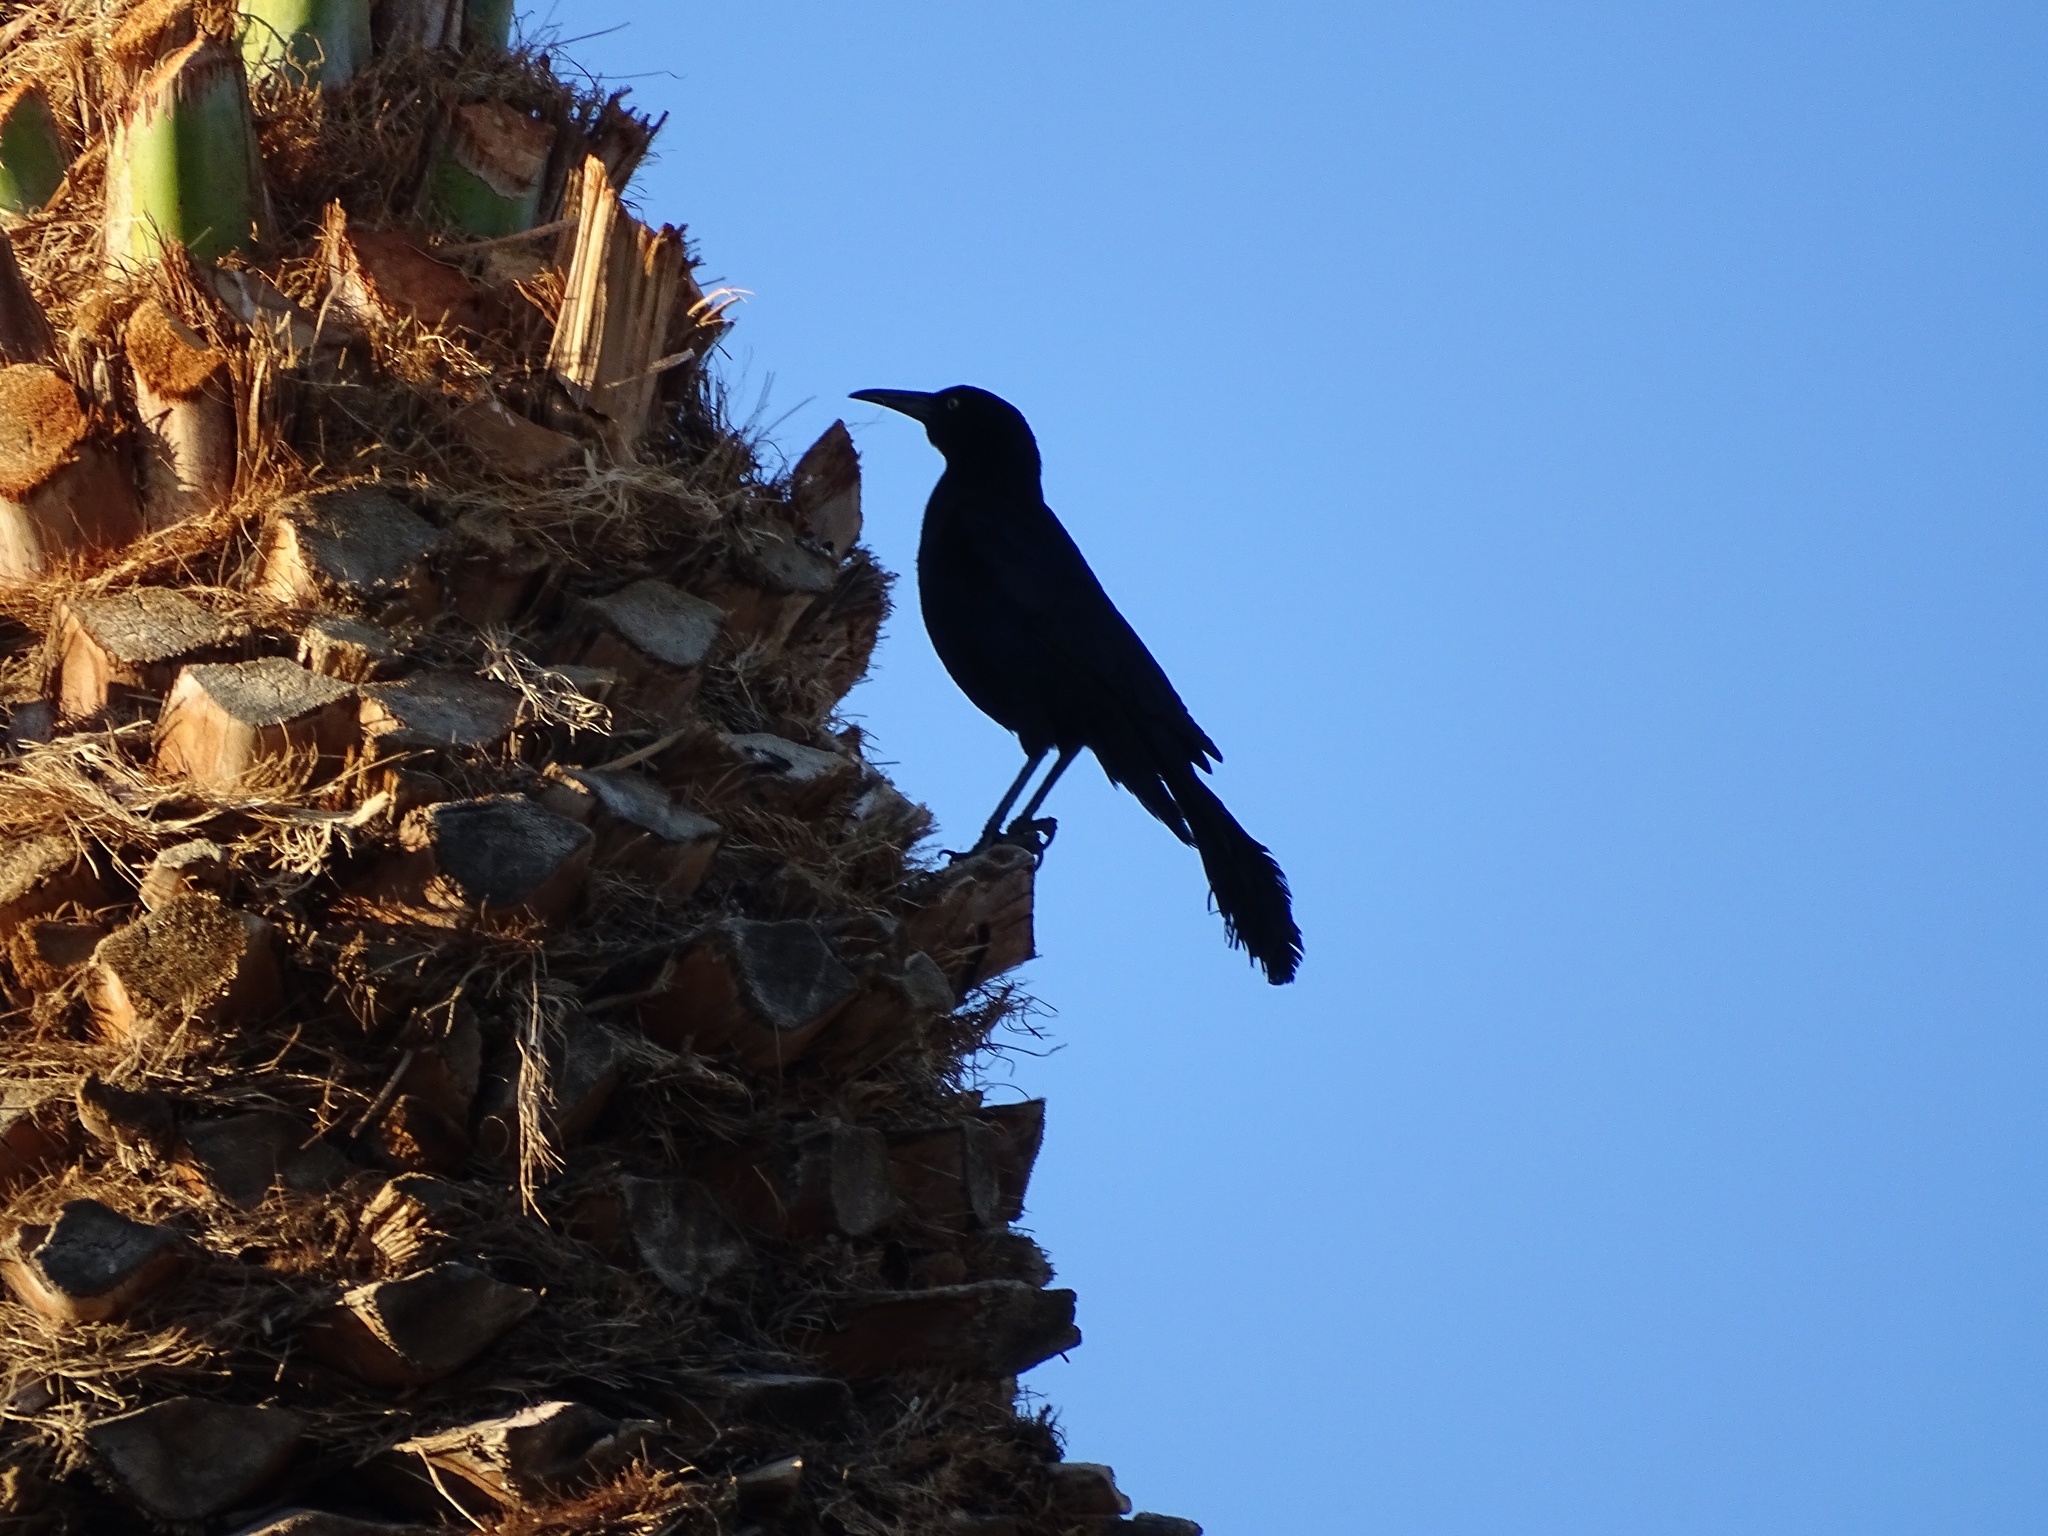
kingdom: Animalia
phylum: Chordata
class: Aves
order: Passeriformes
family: Icteridae
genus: Quiscalus
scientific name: Quiscalus mexicanus
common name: Great-tailed grackle
